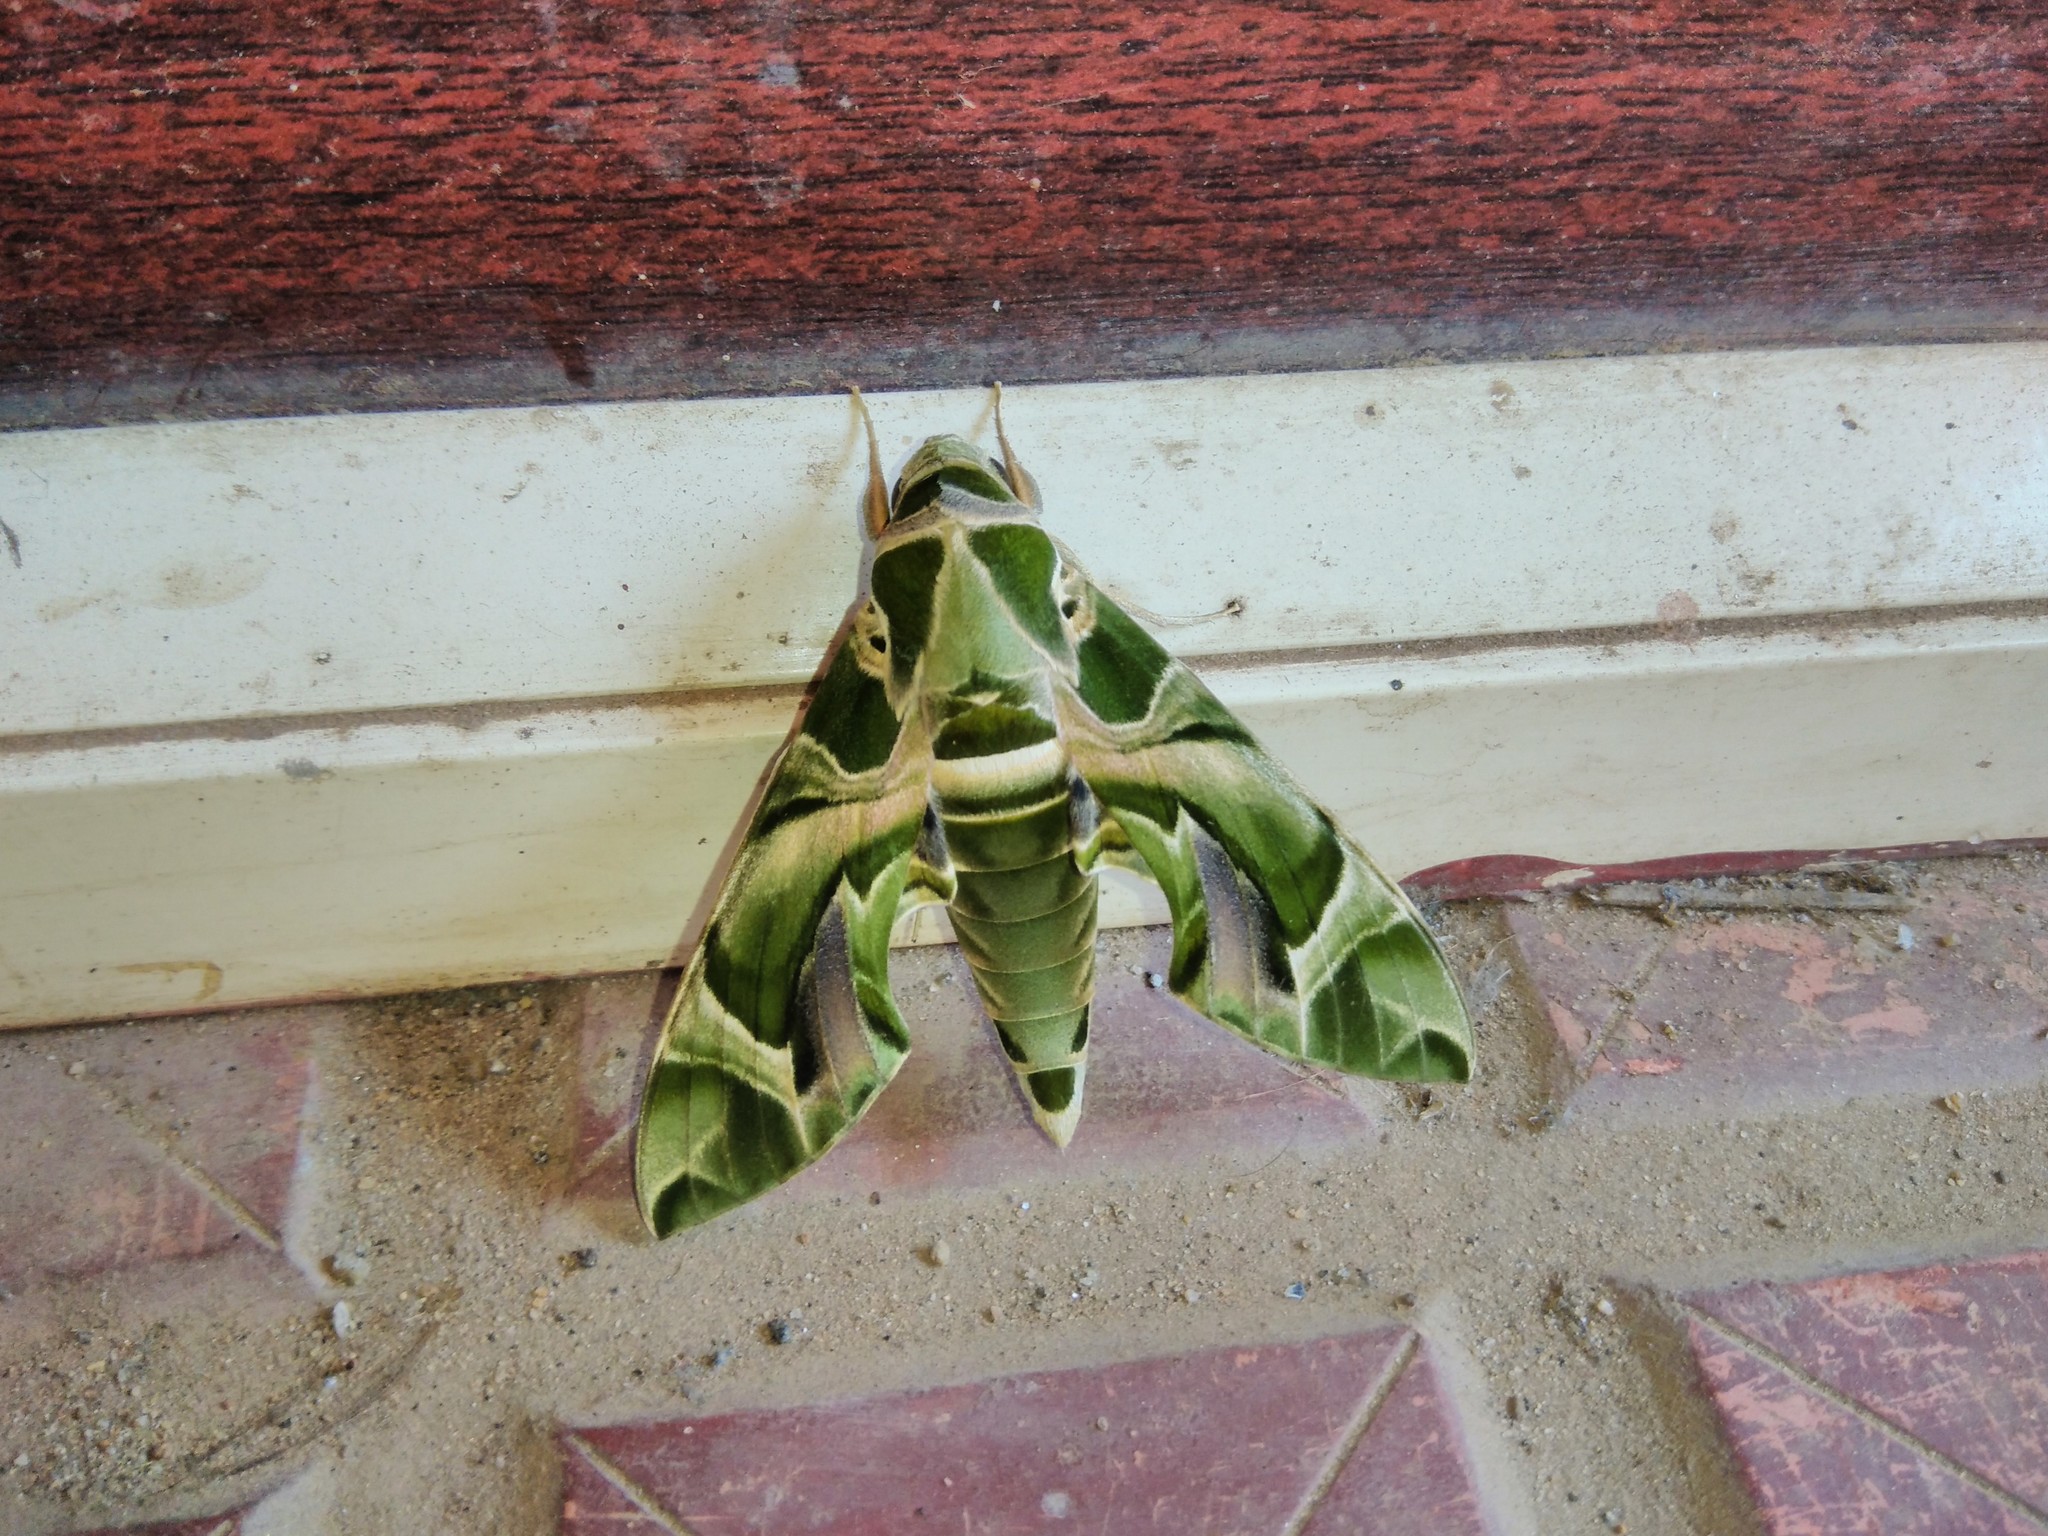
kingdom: Animalia
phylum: Arthropoda
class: Insecta
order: Lepidoptera
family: Sphingidae
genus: Daphnis
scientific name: Daphnis nerii
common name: Oleander hawk-moth
